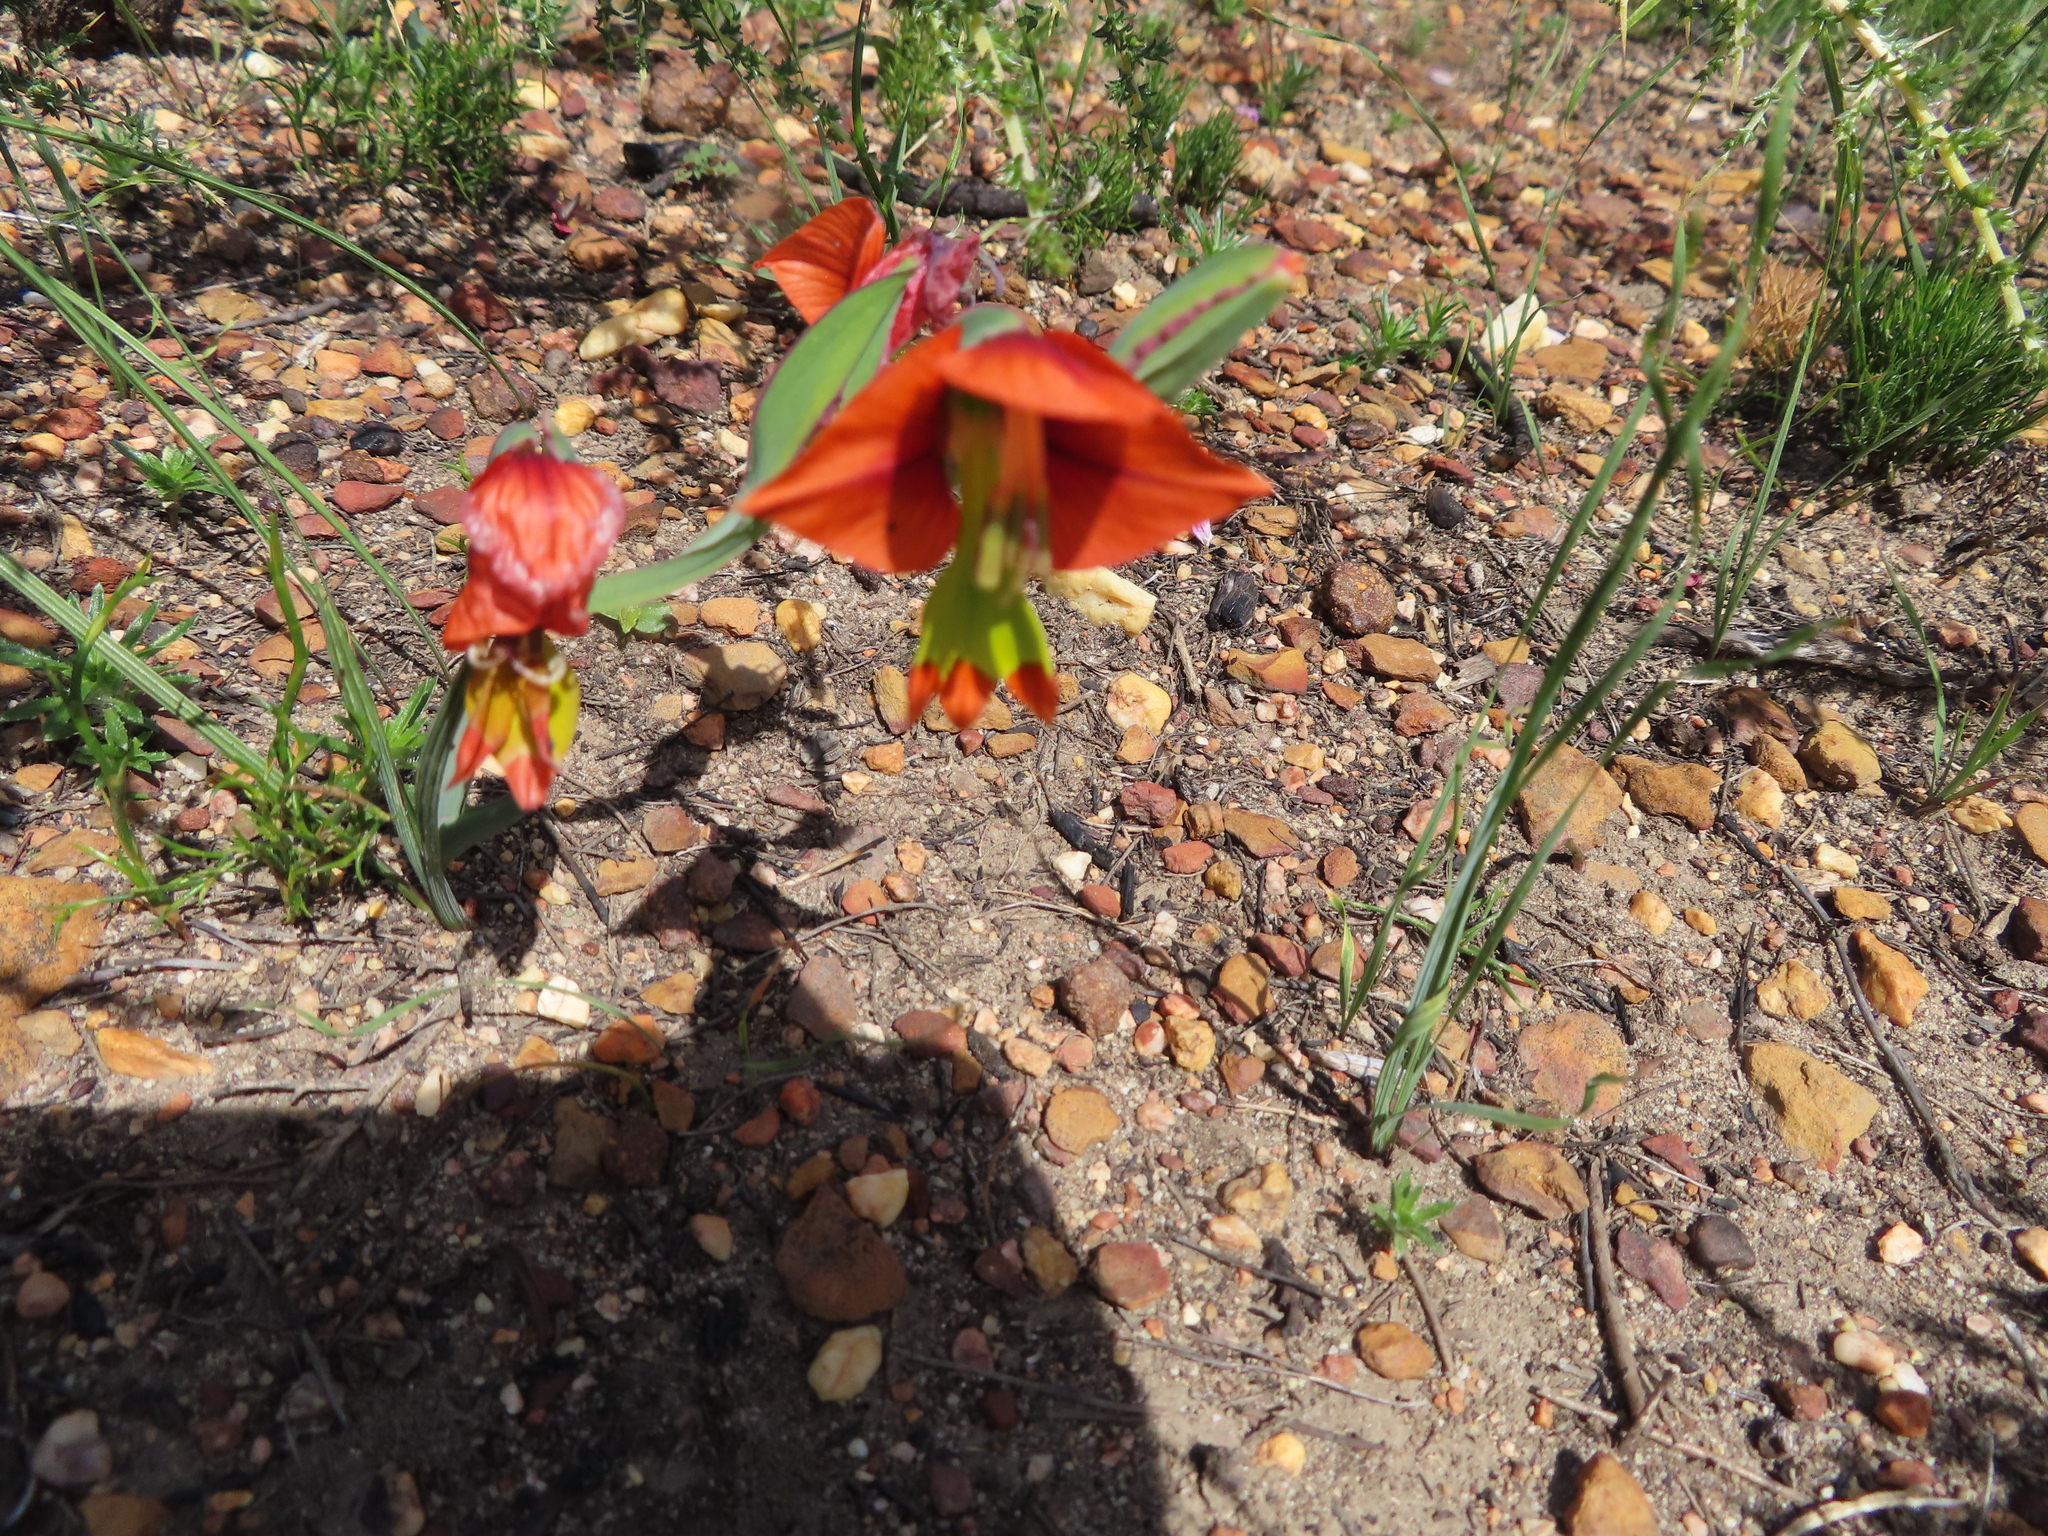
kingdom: Plantae
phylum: Tracheophyta
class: Liliopsida
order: Asparagales
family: Iridaceae
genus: Gladiolus
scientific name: Gladiolus alatus
